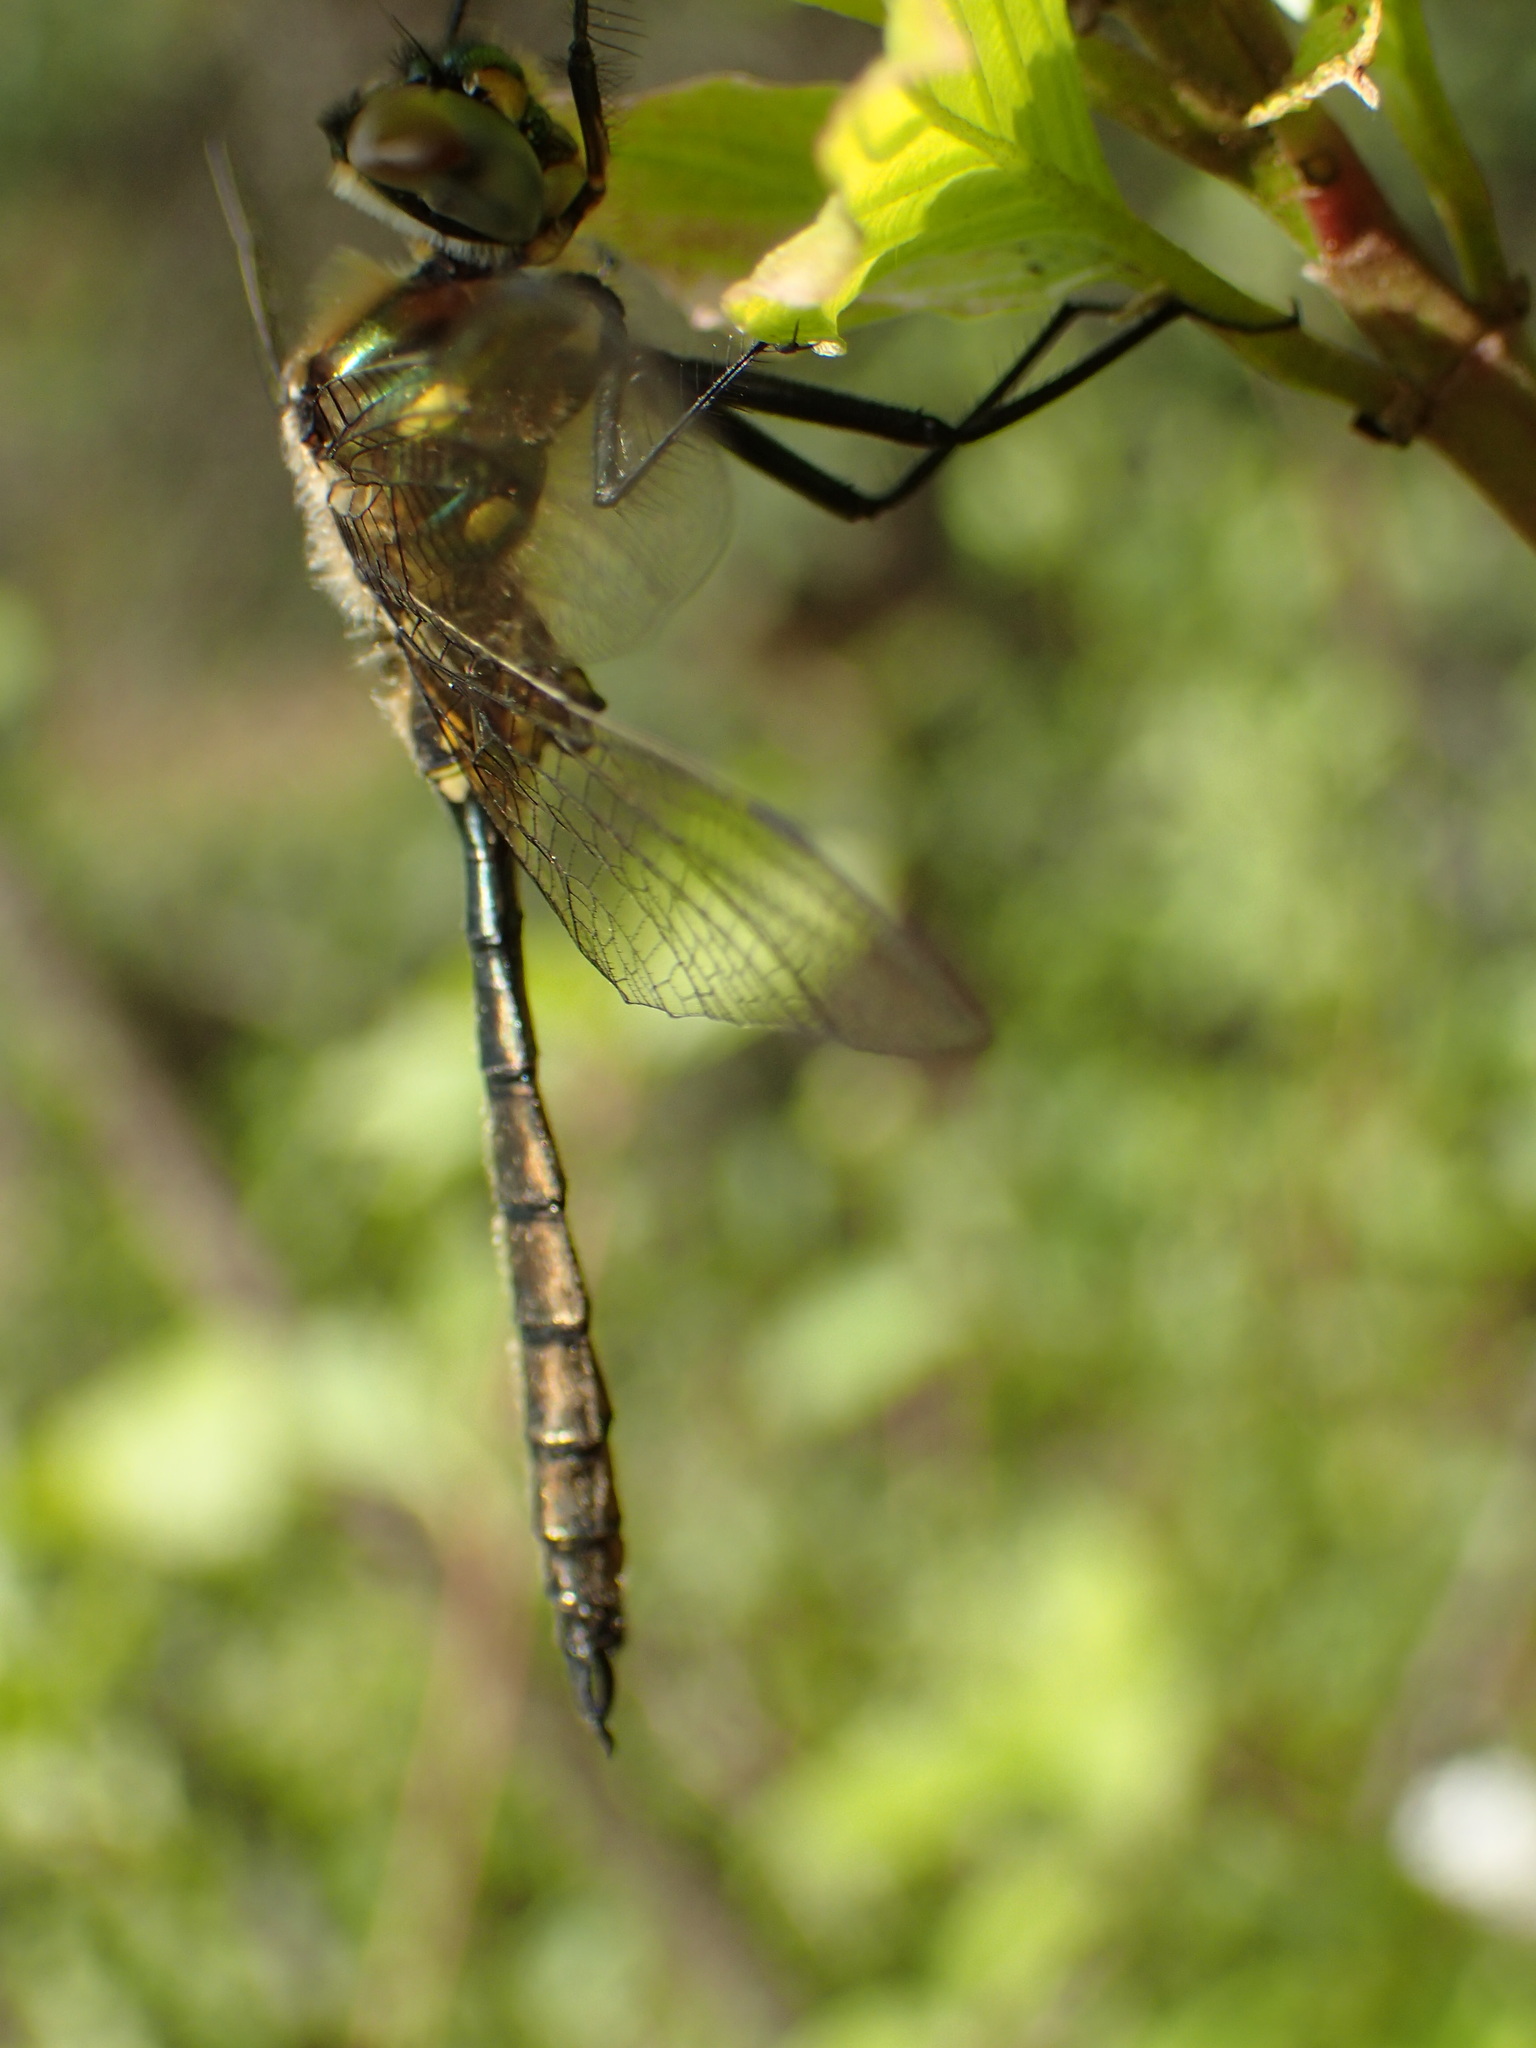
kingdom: Animalia
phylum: Arthropoda
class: Insecta
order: Odonata
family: Corduliidae
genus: Somatochlora
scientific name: Somatochlora minor
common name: Ocellated emerald
